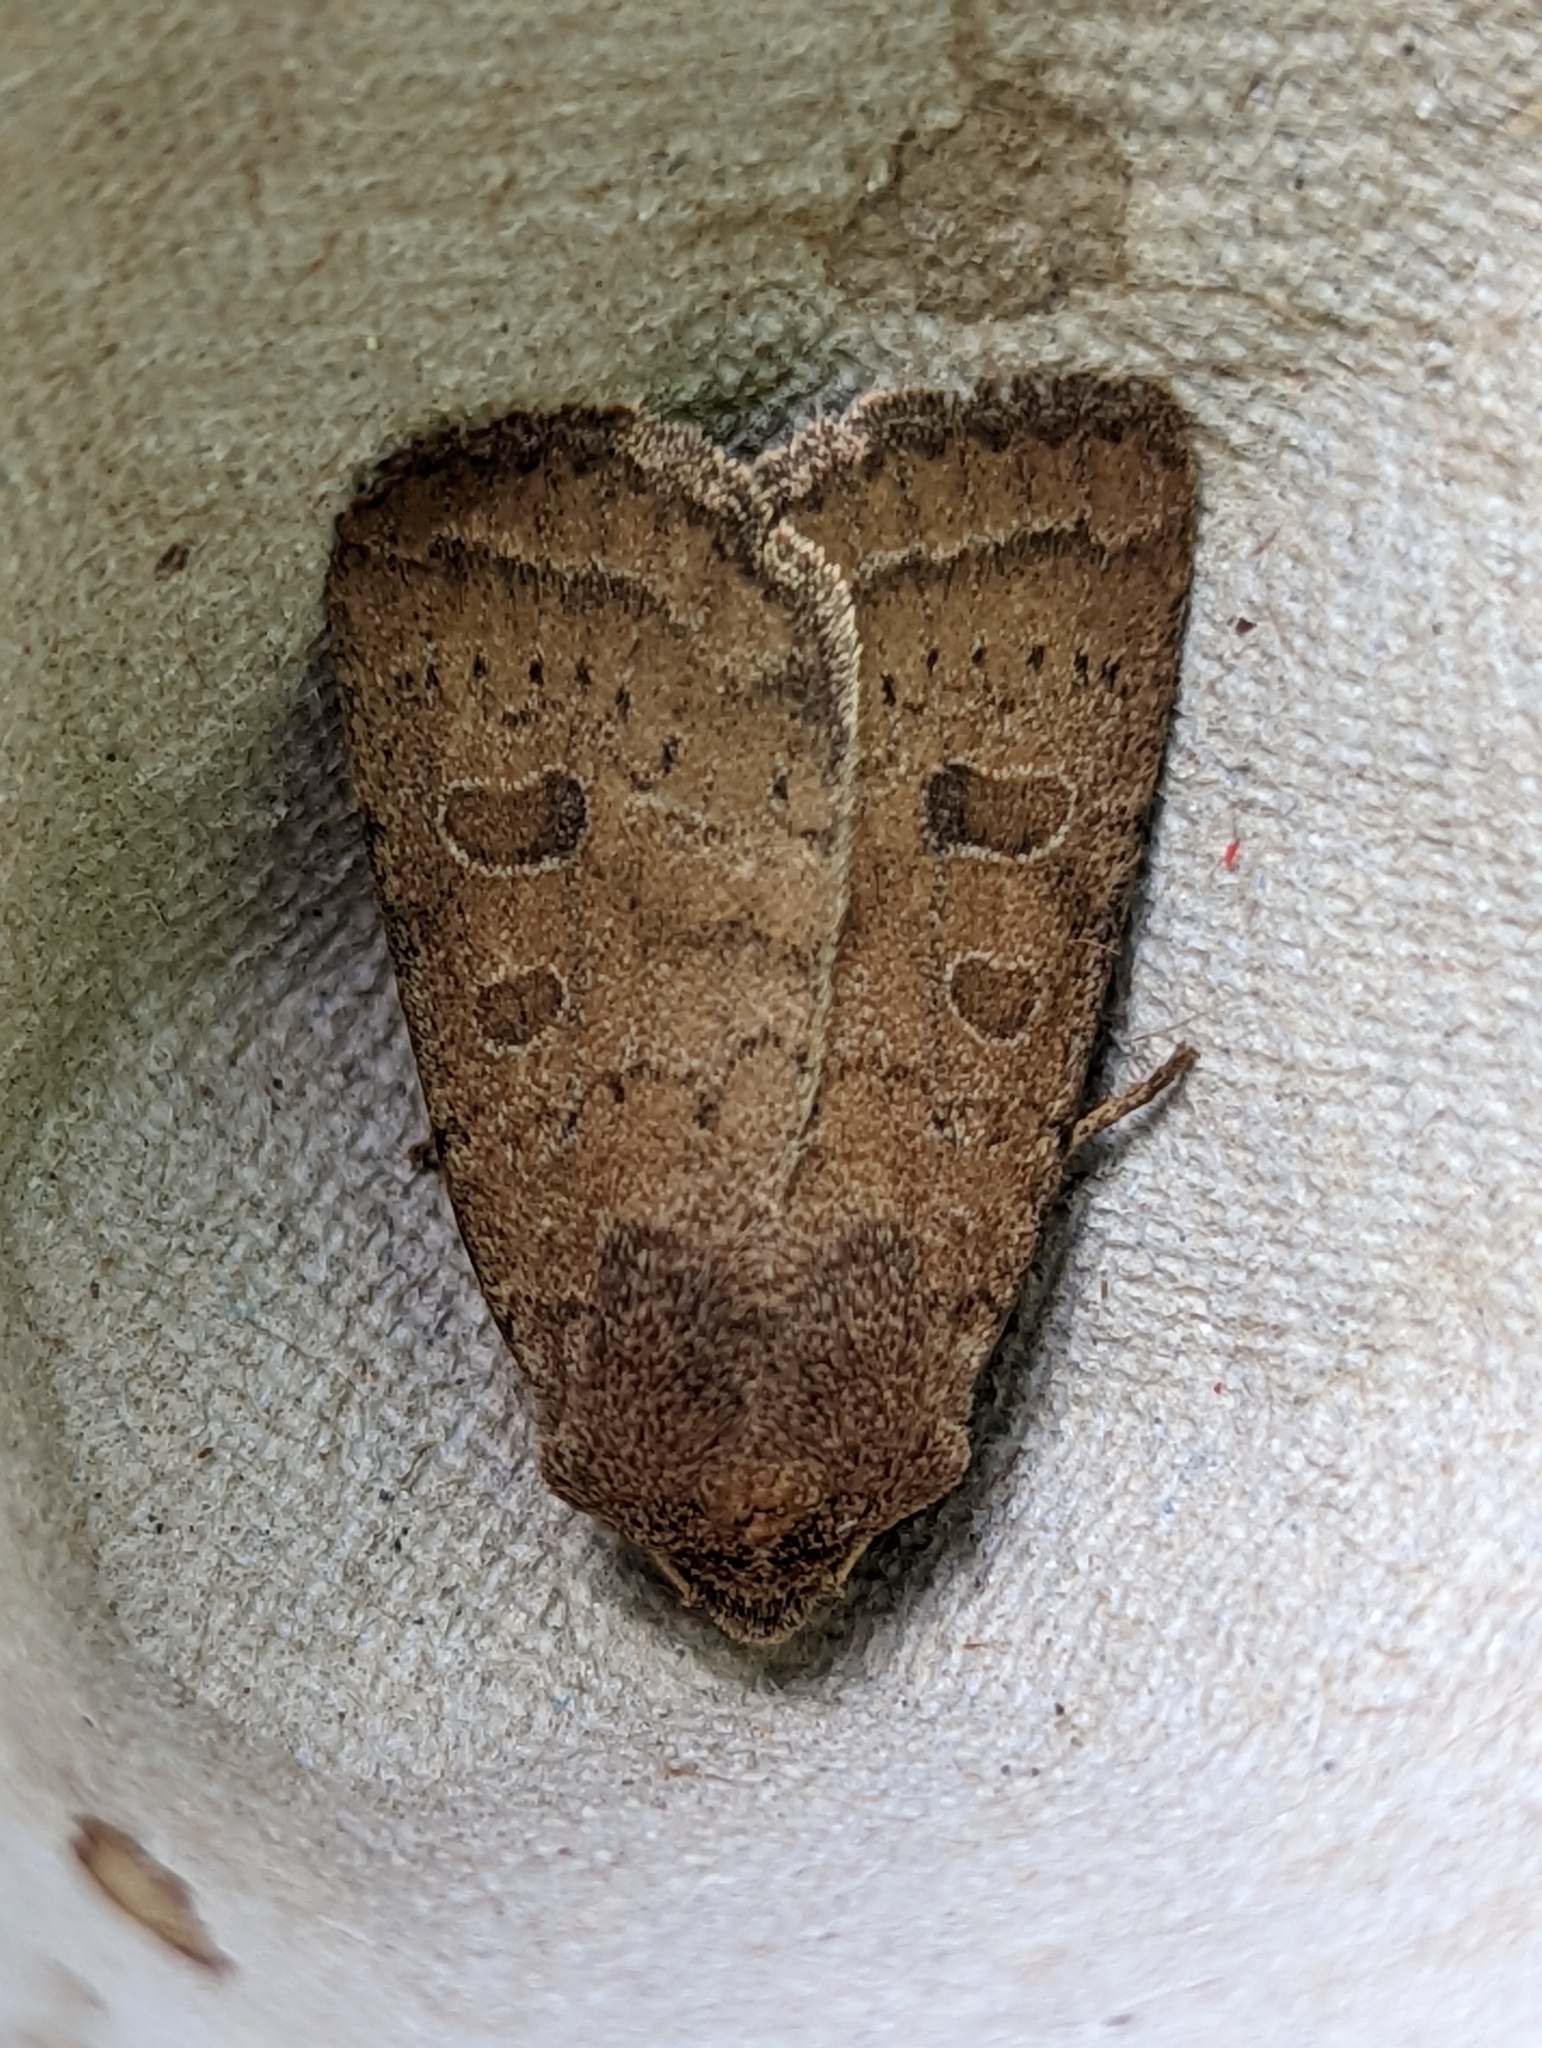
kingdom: Animalia
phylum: Arthropoda
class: Insecta
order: Lepidoptera
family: Noctuidae
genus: Hoplodrina
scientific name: Hoplodrina octogenaria
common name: Uncertain
